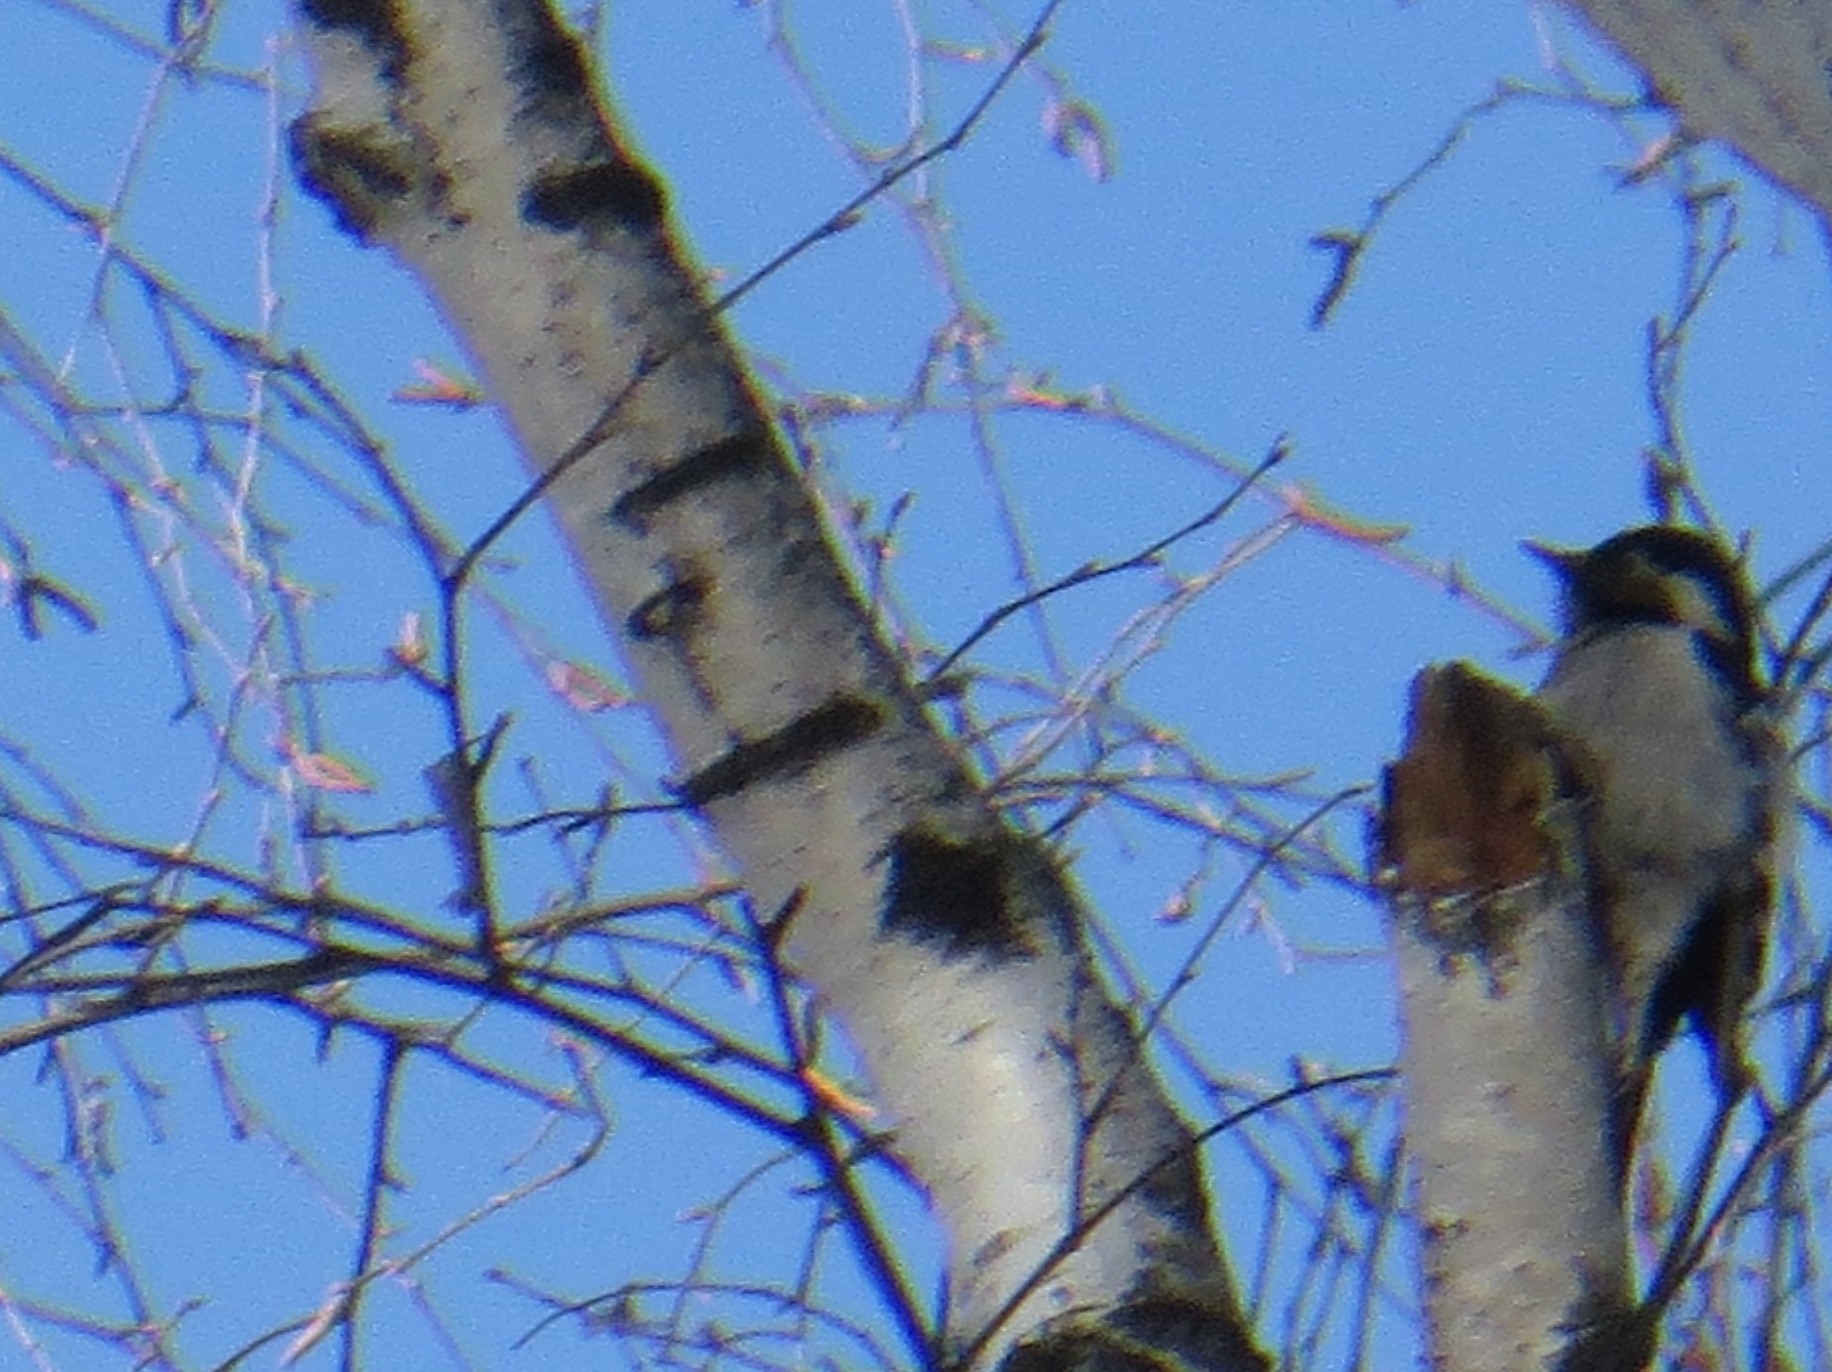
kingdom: Animalia
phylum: Chordata
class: Aves
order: Piciformes
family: Picidae
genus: Dryobates
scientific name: Dryobates minor
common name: Lesser spotted woodpecker
